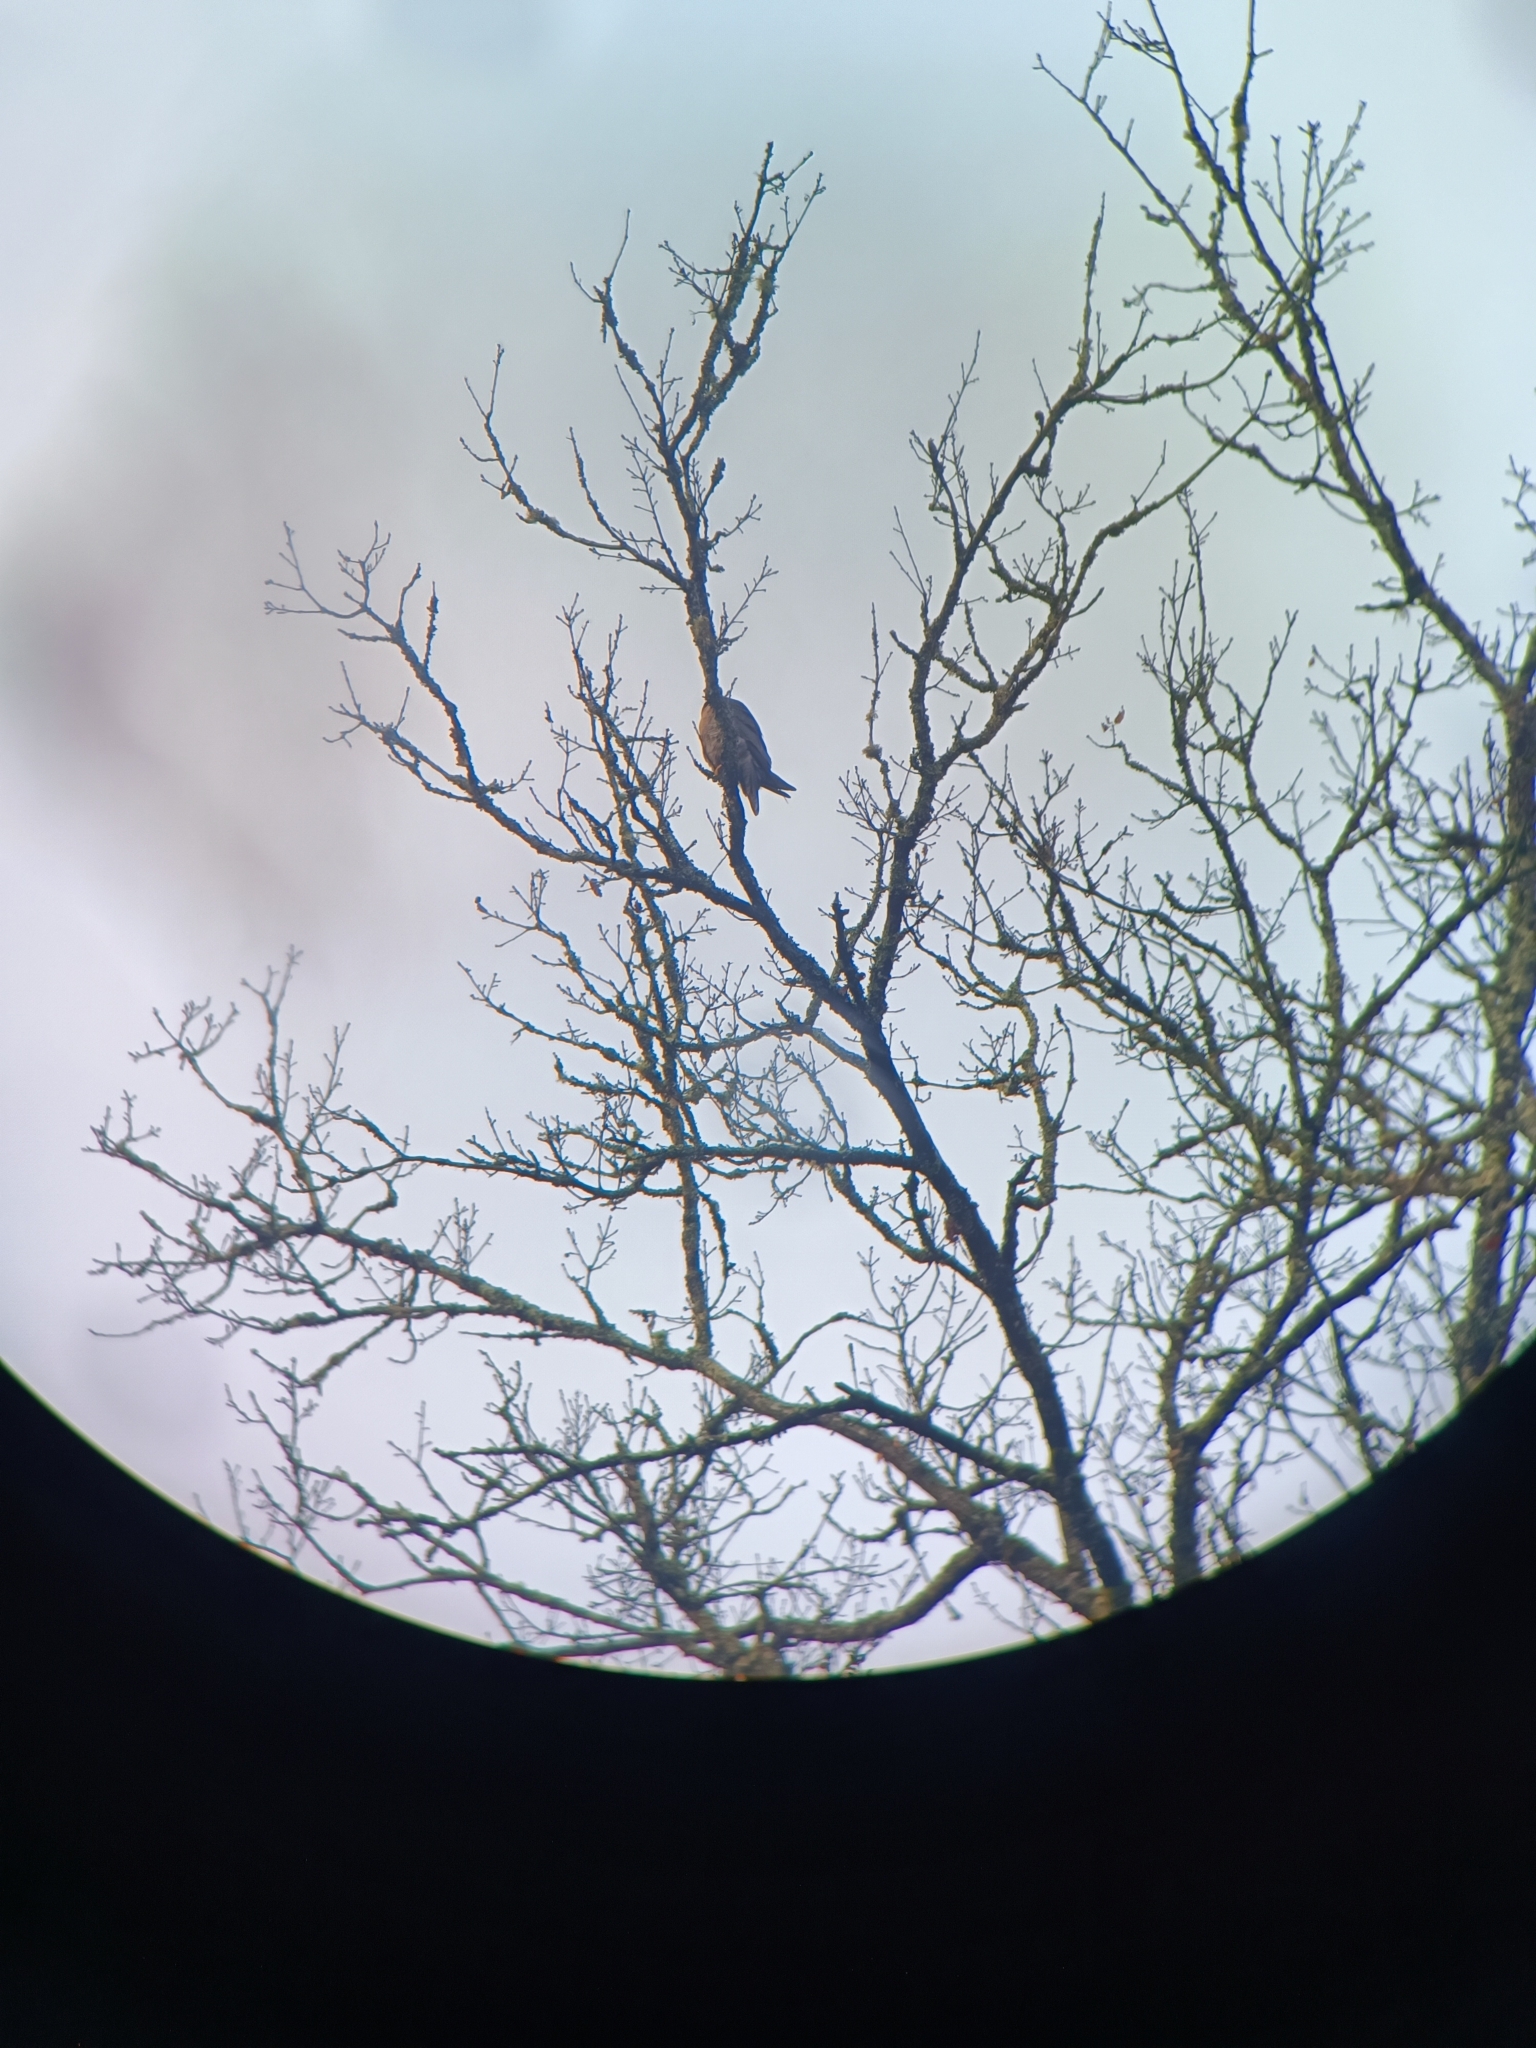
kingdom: Animalia
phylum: Chordata
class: Aves
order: Falconiformes
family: Falconidae
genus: Falco
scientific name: Falco peregrinus
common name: Peregrine falcon
